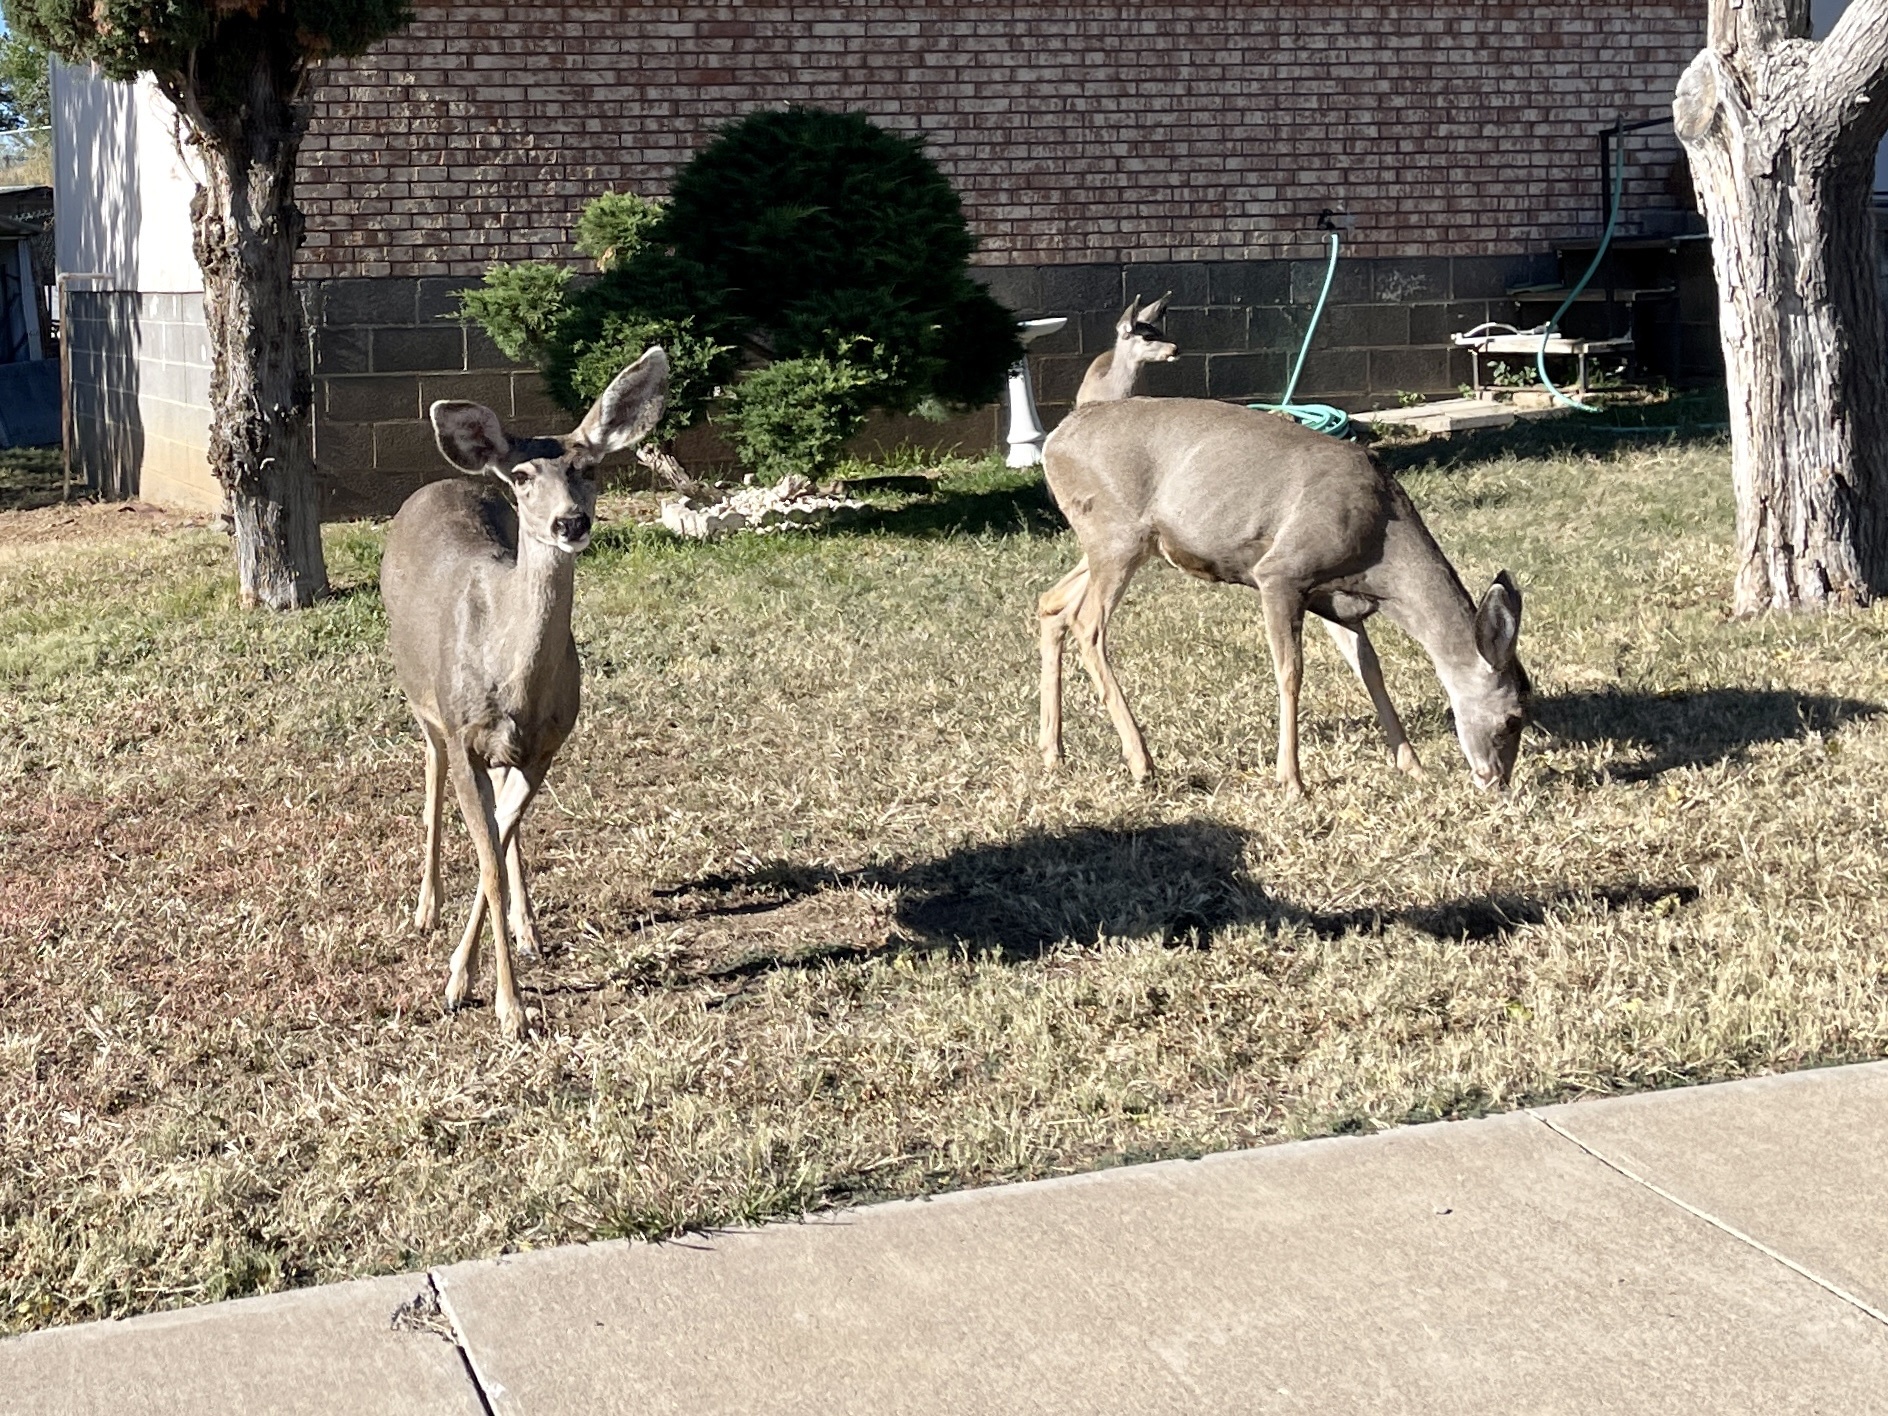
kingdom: Animalia
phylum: Chordata
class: Mammalia
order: Artiodactyla
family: Cervidae
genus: Odocoileus
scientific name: Odocoileus hemionus
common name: Mule deer
